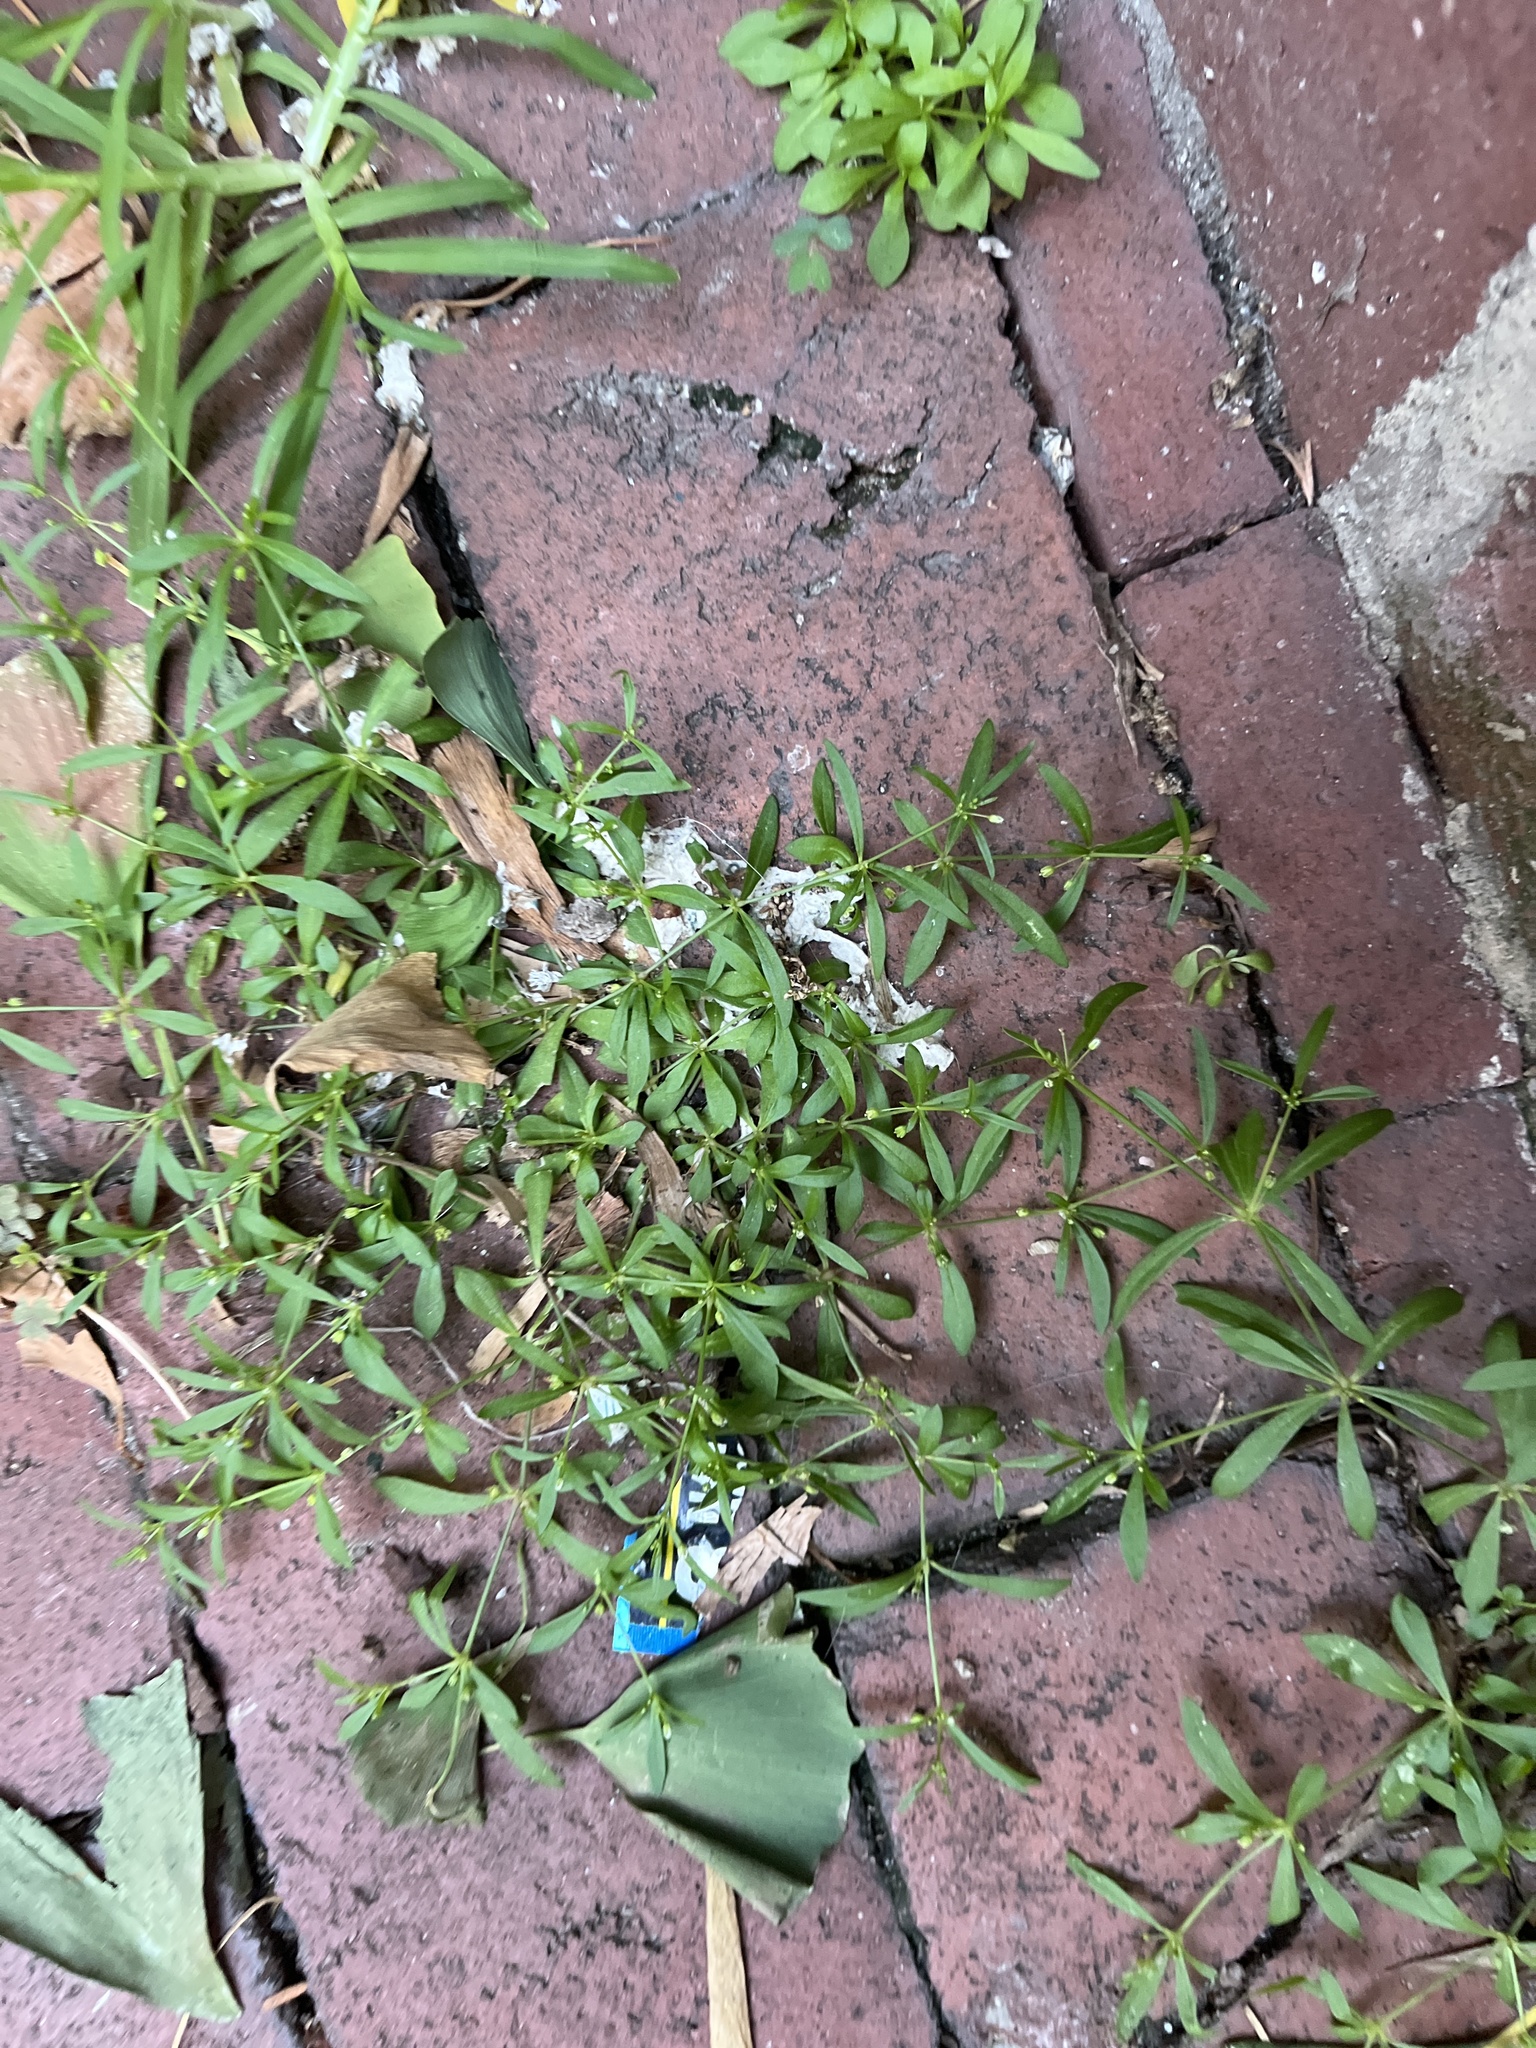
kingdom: Plantae
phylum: Tracheophyta
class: Magnoliopsida
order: Caryophyllales
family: Molluginaceae
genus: Mollugo
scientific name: Mollugo verticillata
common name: Green carpetweed
